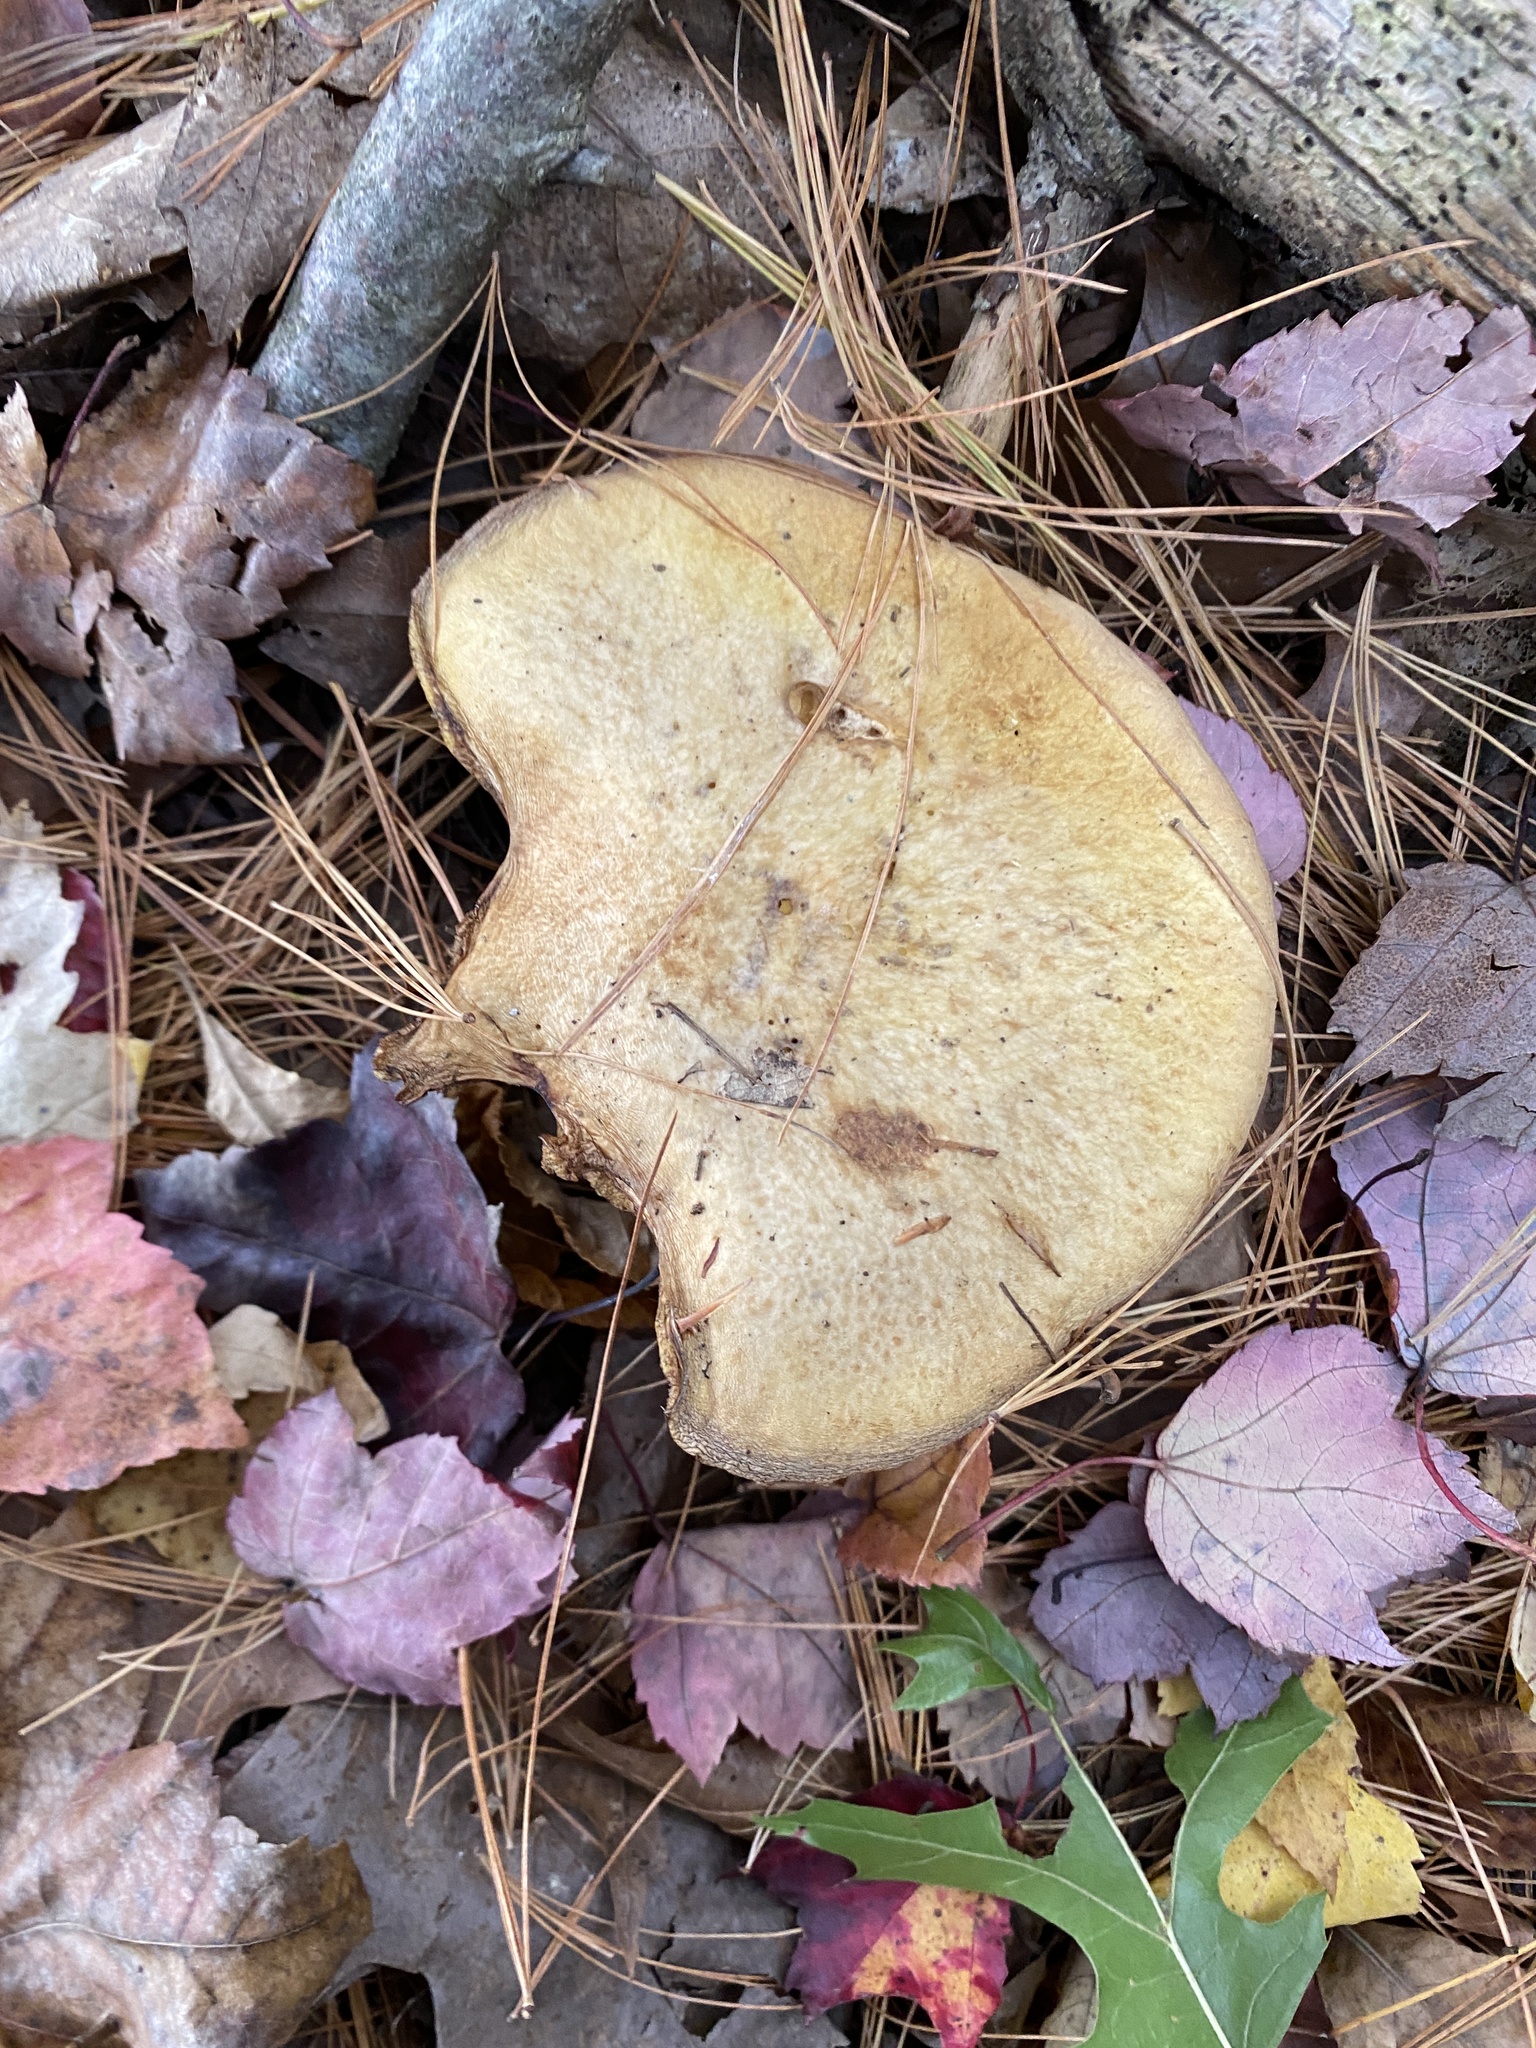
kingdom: Fungi
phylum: Basidiomycota
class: Agaricomycetes
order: Boletales
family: Suillaceae
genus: Suillus
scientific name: Suillus americanus
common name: Chicken fat mushroom
